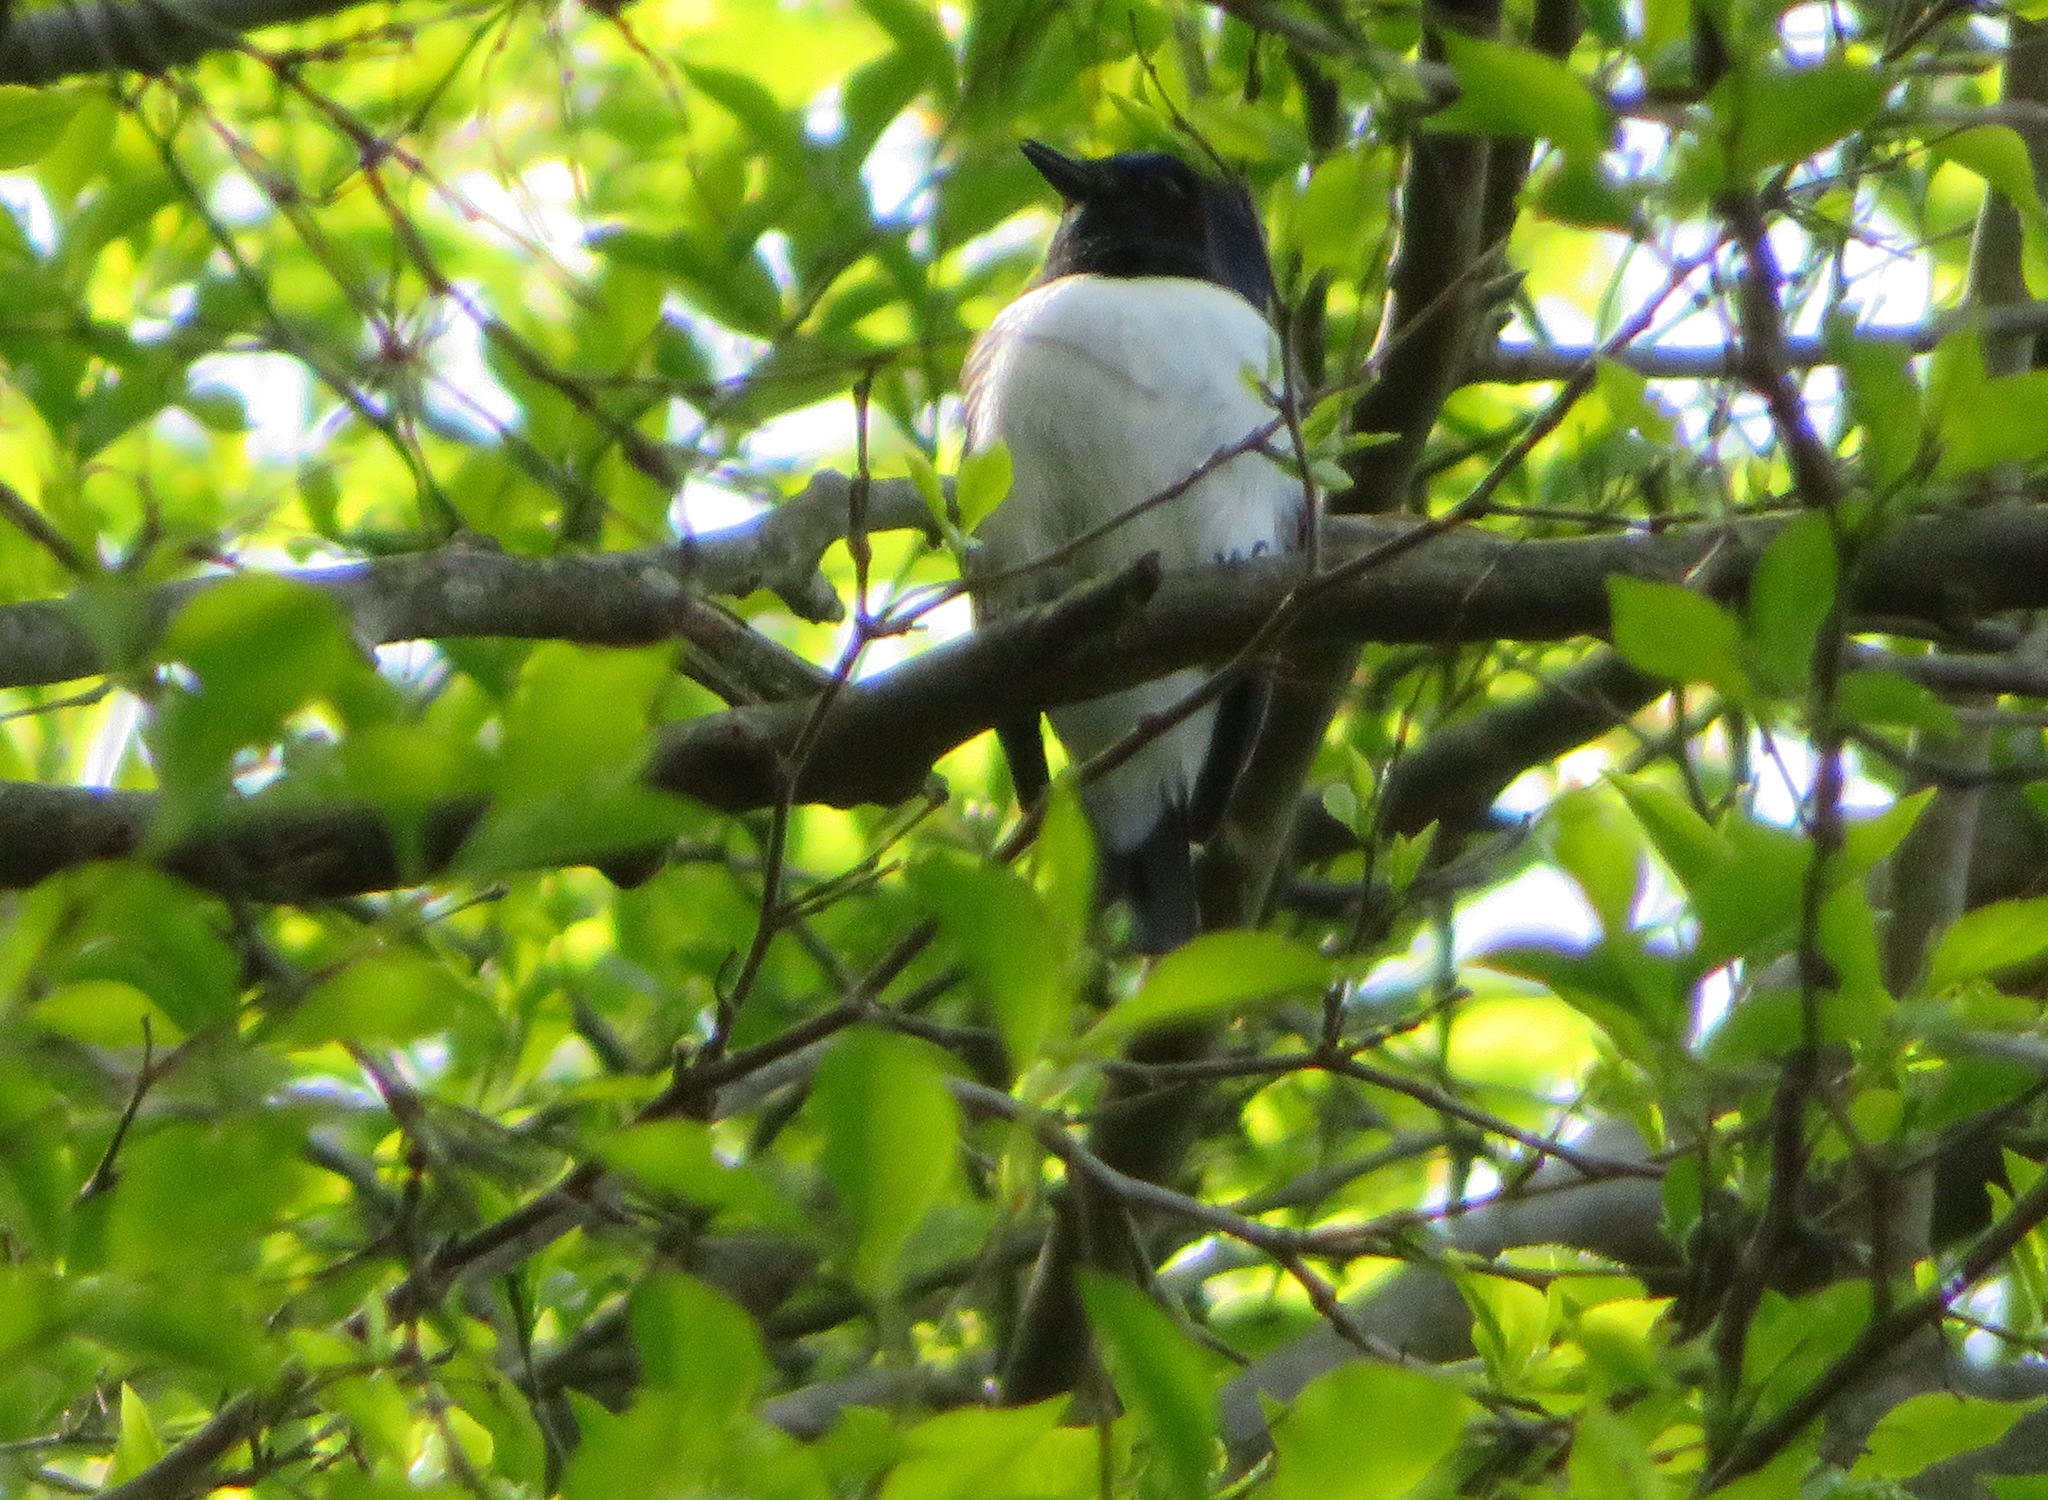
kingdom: Animalia
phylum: Chordata
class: Aves
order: Passeriformes
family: Muscicapidae
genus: Cyanoptila
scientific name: Cyanoptila cyanomelana
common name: Blue-and-white flycatcher
